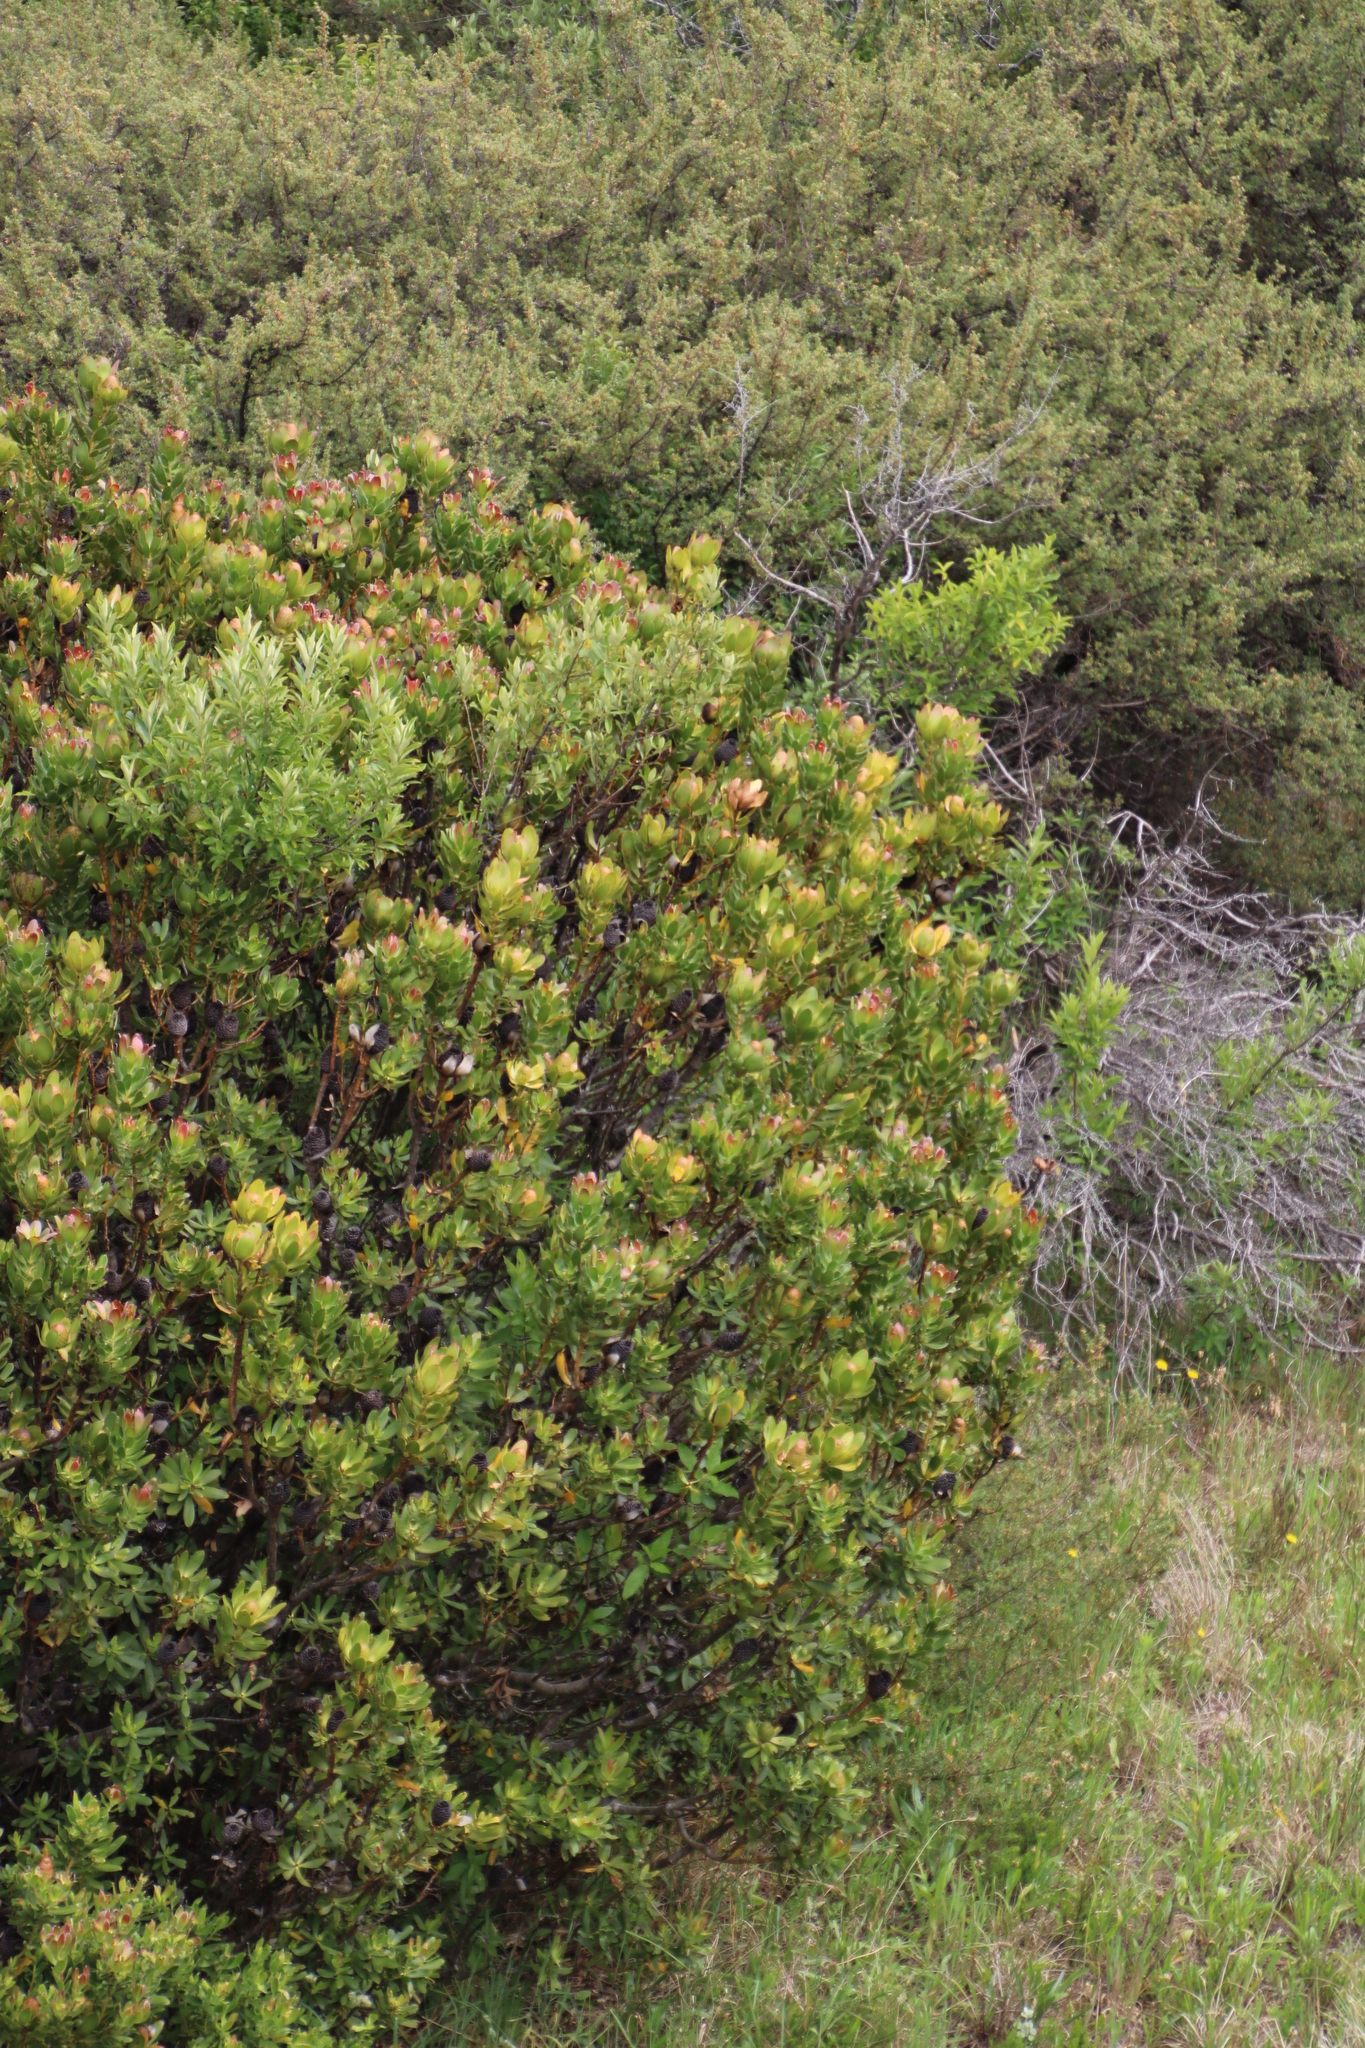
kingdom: Plantae
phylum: Tracheophyta
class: Magnoliopsida
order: Proteales
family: Proteaceae
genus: Leucadendron
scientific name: Leucadendron strobilinum
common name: Mountain rose
